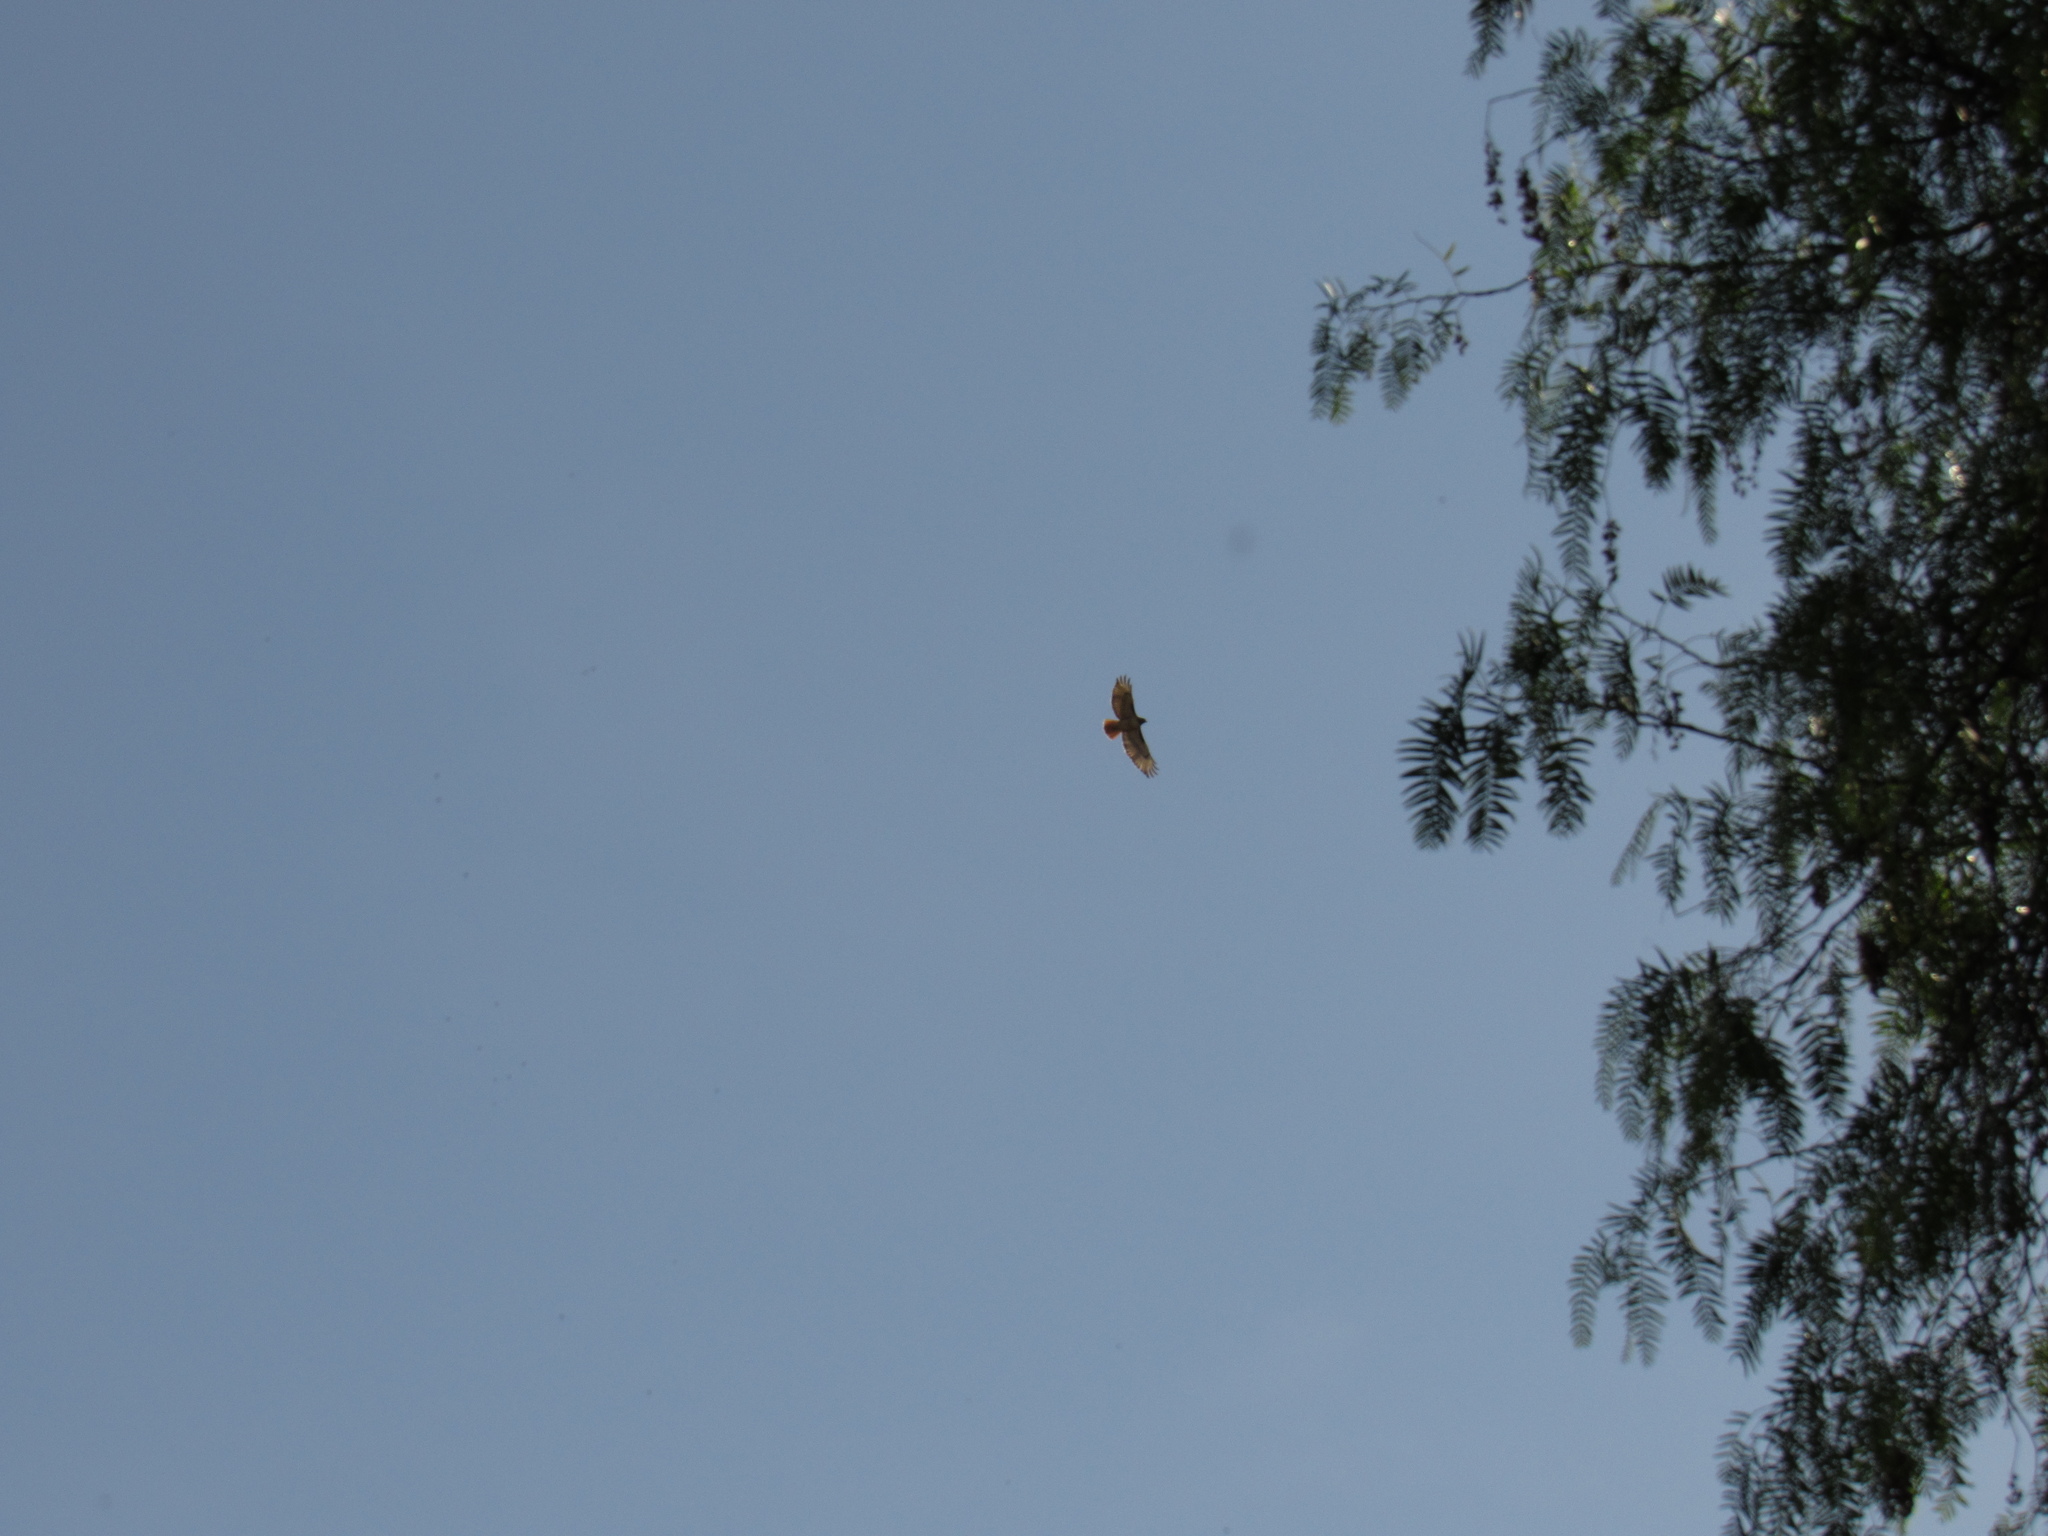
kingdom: Animalia
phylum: Chordata
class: Aves
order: Accipitriformes
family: Accipitridae
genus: Buteo
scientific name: Buteo jamaicensis
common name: Red-tailed hawk
